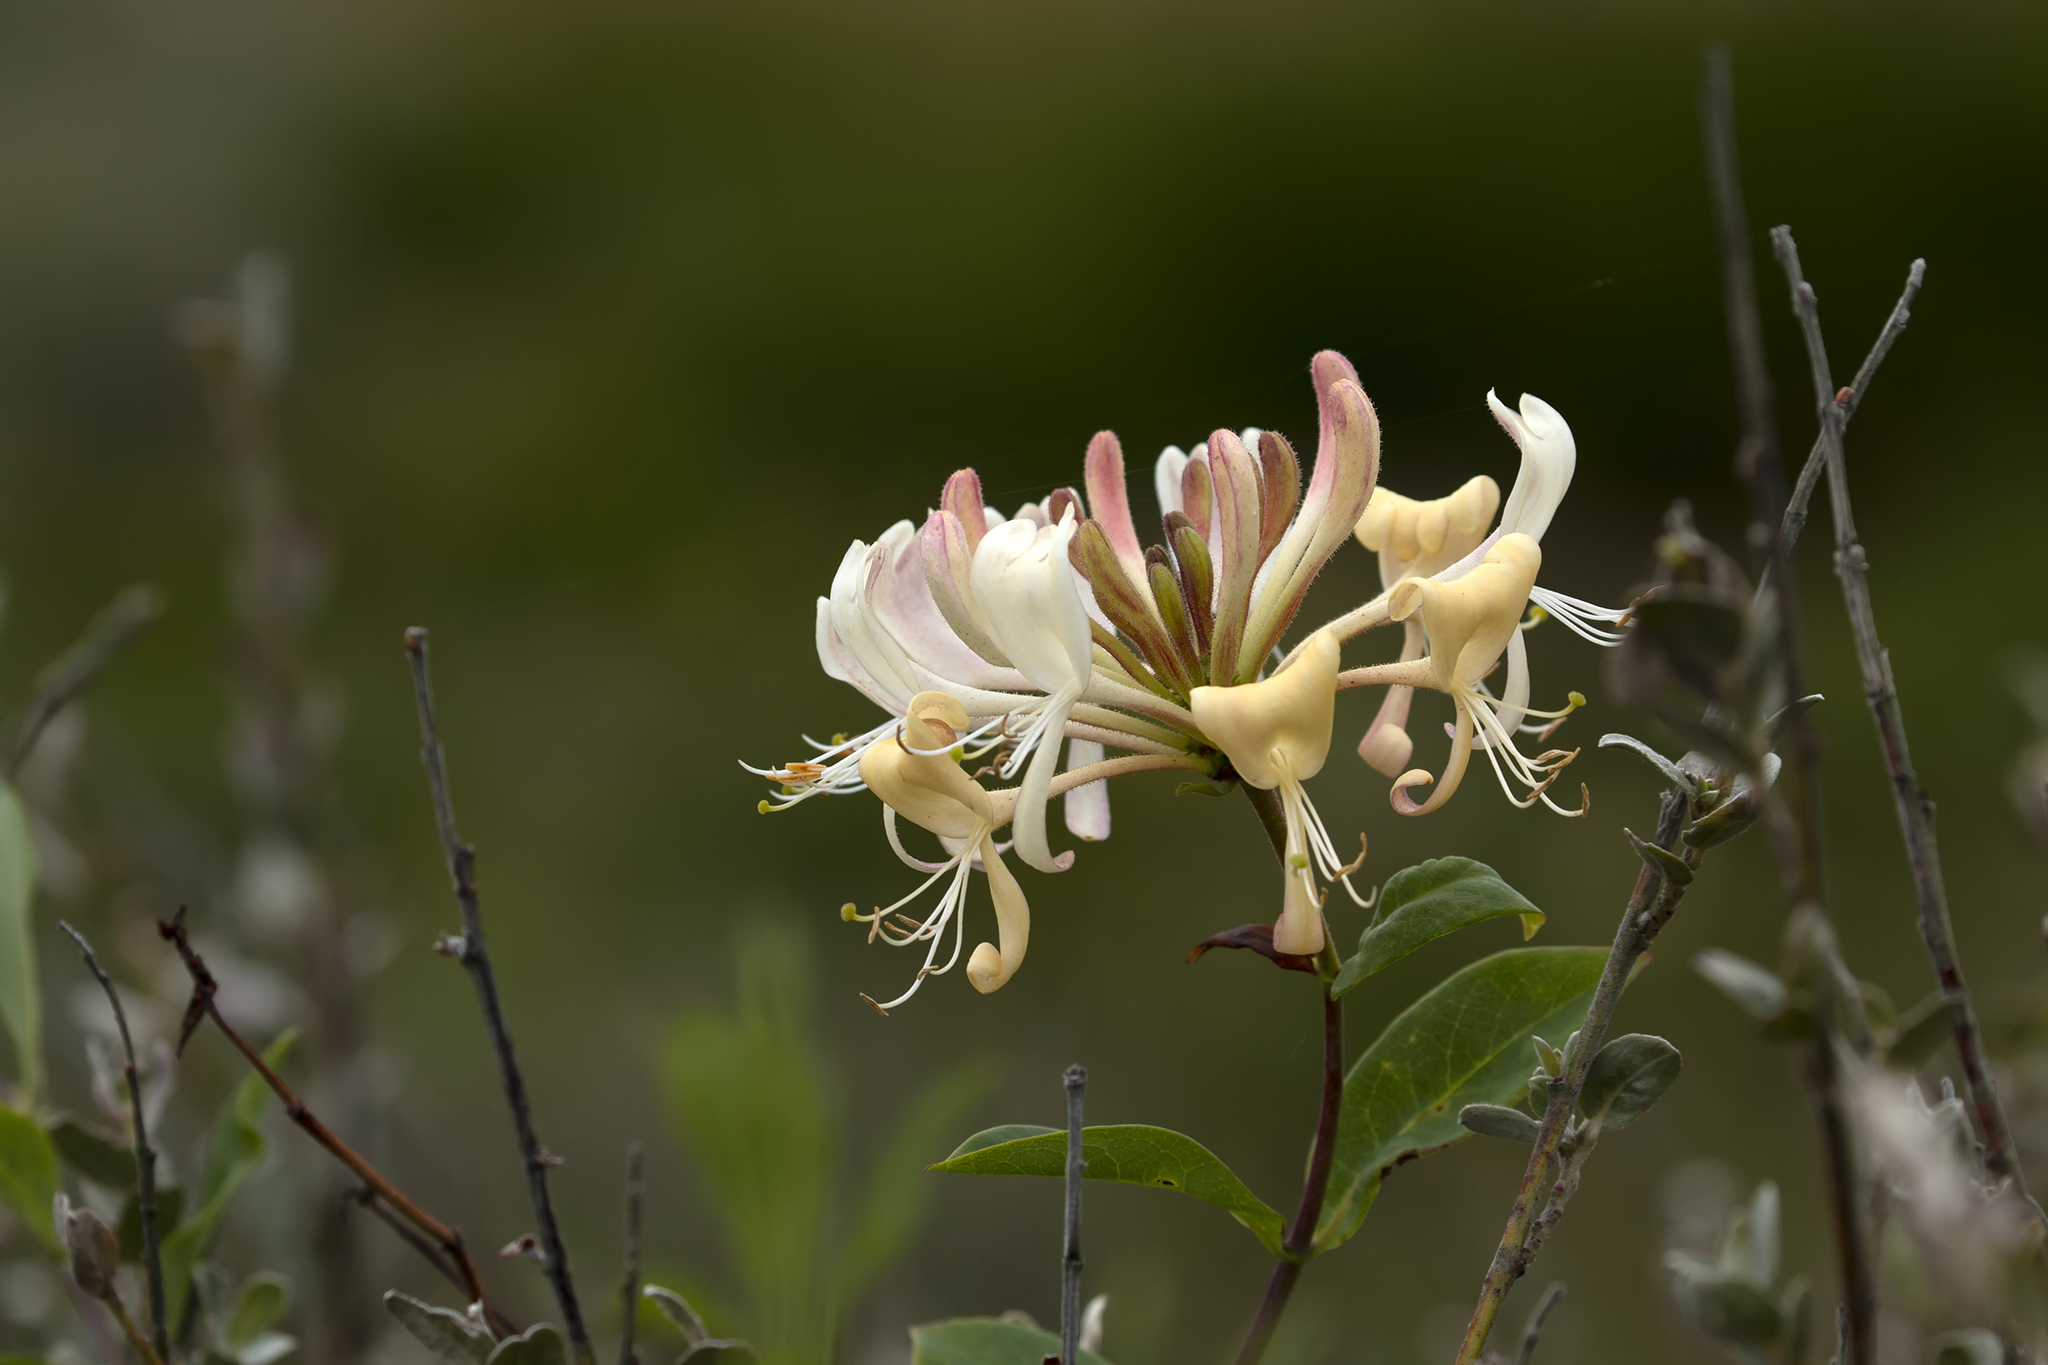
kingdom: Plantae
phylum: Tracheophyta
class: Magnoliopsida
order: Dipsacales
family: Caprifoliaceae
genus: Lonicera
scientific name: Lonicera periclymenum
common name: European honeysuckle
